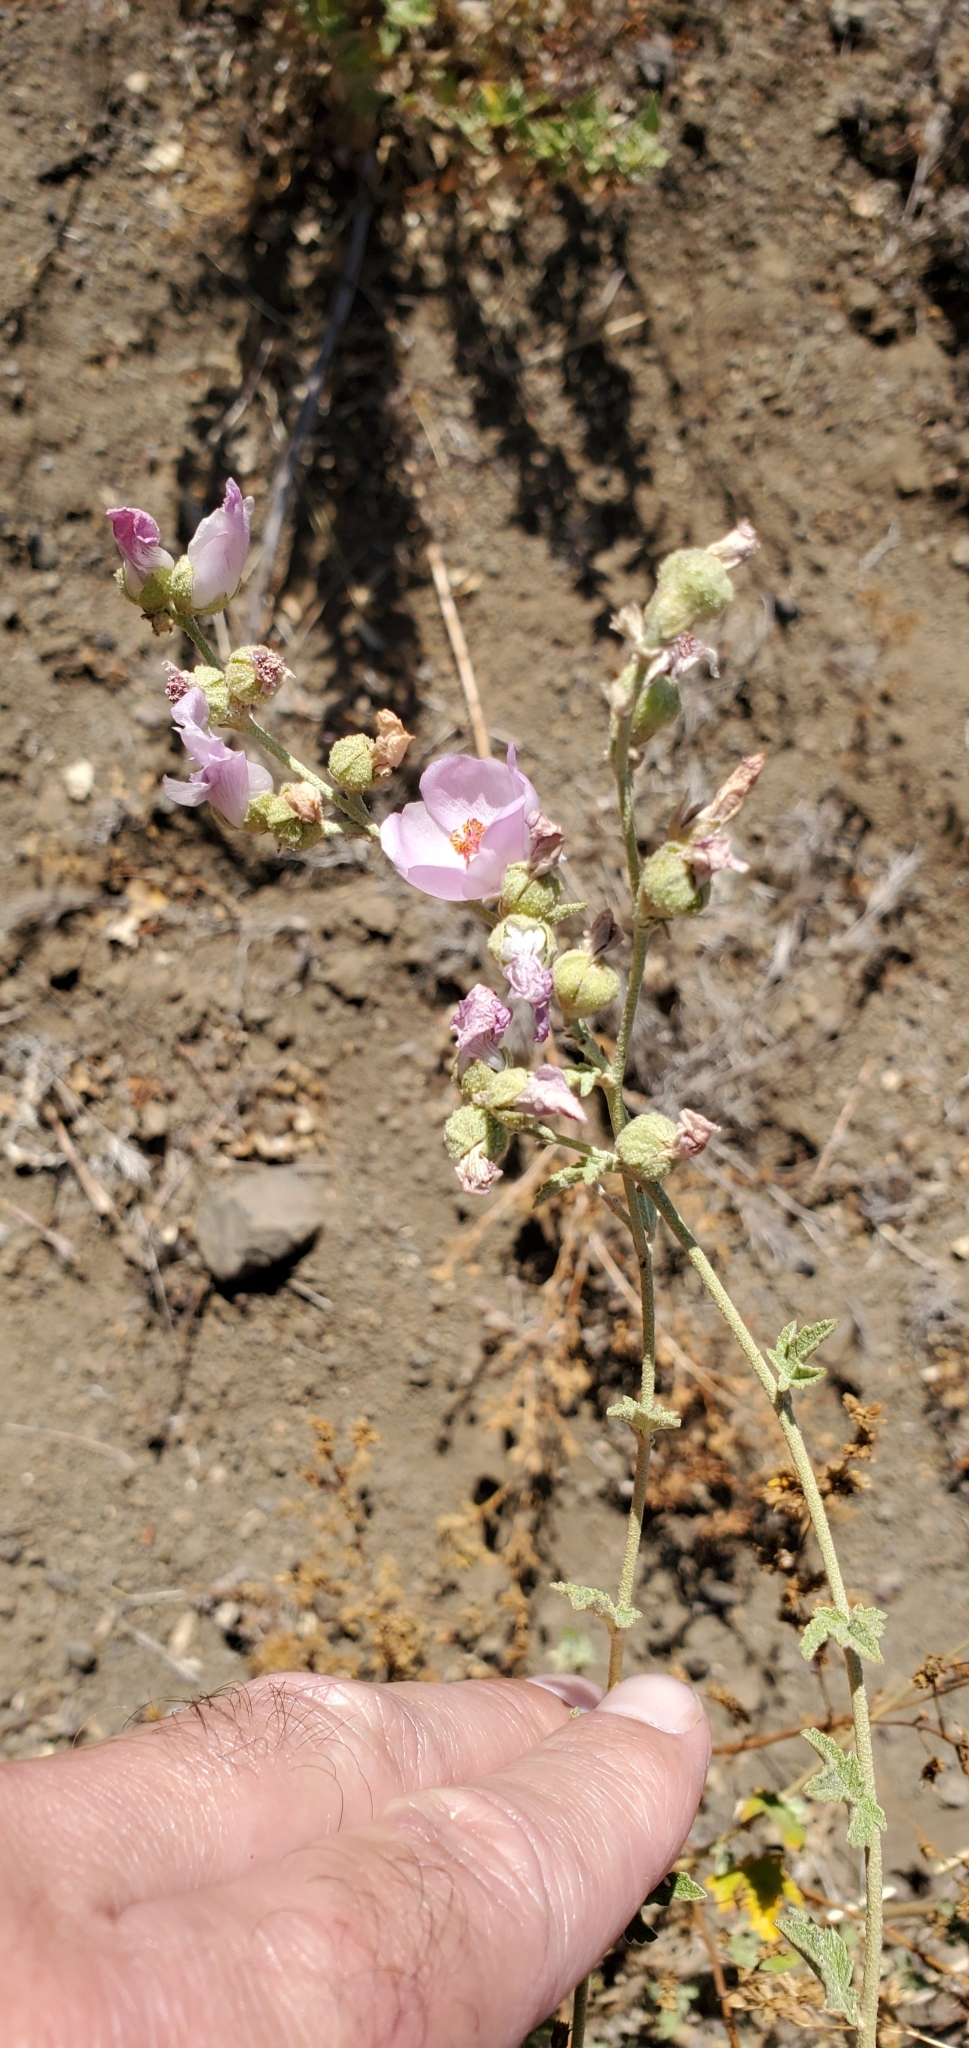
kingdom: Plantae
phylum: Tracheophyta
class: Magnoliopsida
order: Malvales
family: Malvaceae
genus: Malacothamnus
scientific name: Malacothamnus fasciculatus
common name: Sant cruz island bush-mallow
